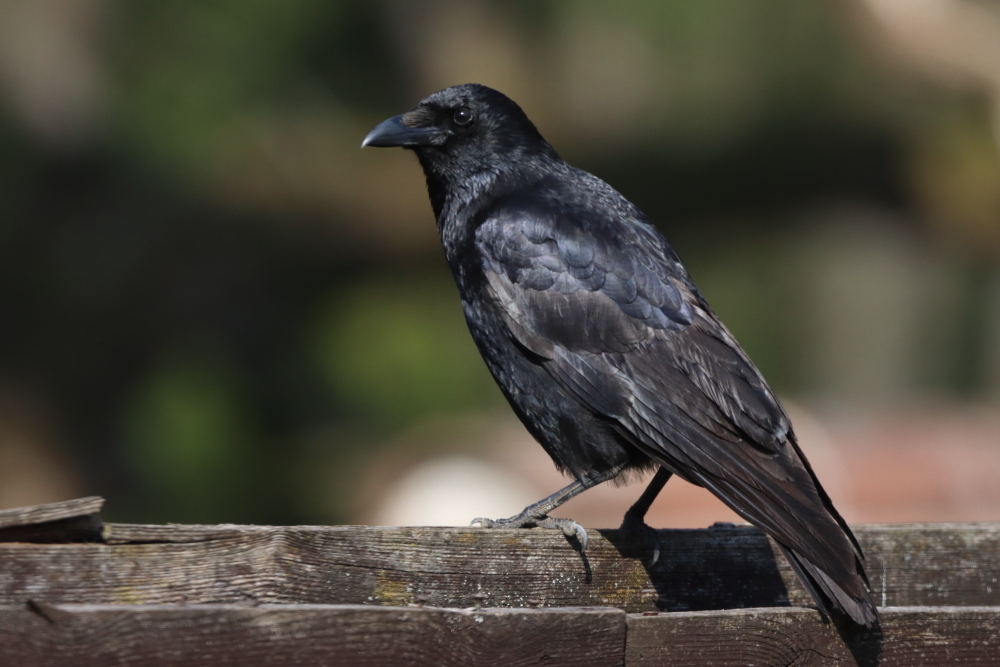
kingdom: Animalia
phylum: Chordata
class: Aves
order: Passeriformes
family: Corvidae
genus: Corvus
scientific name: Corvus corone
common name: Carrion crow
